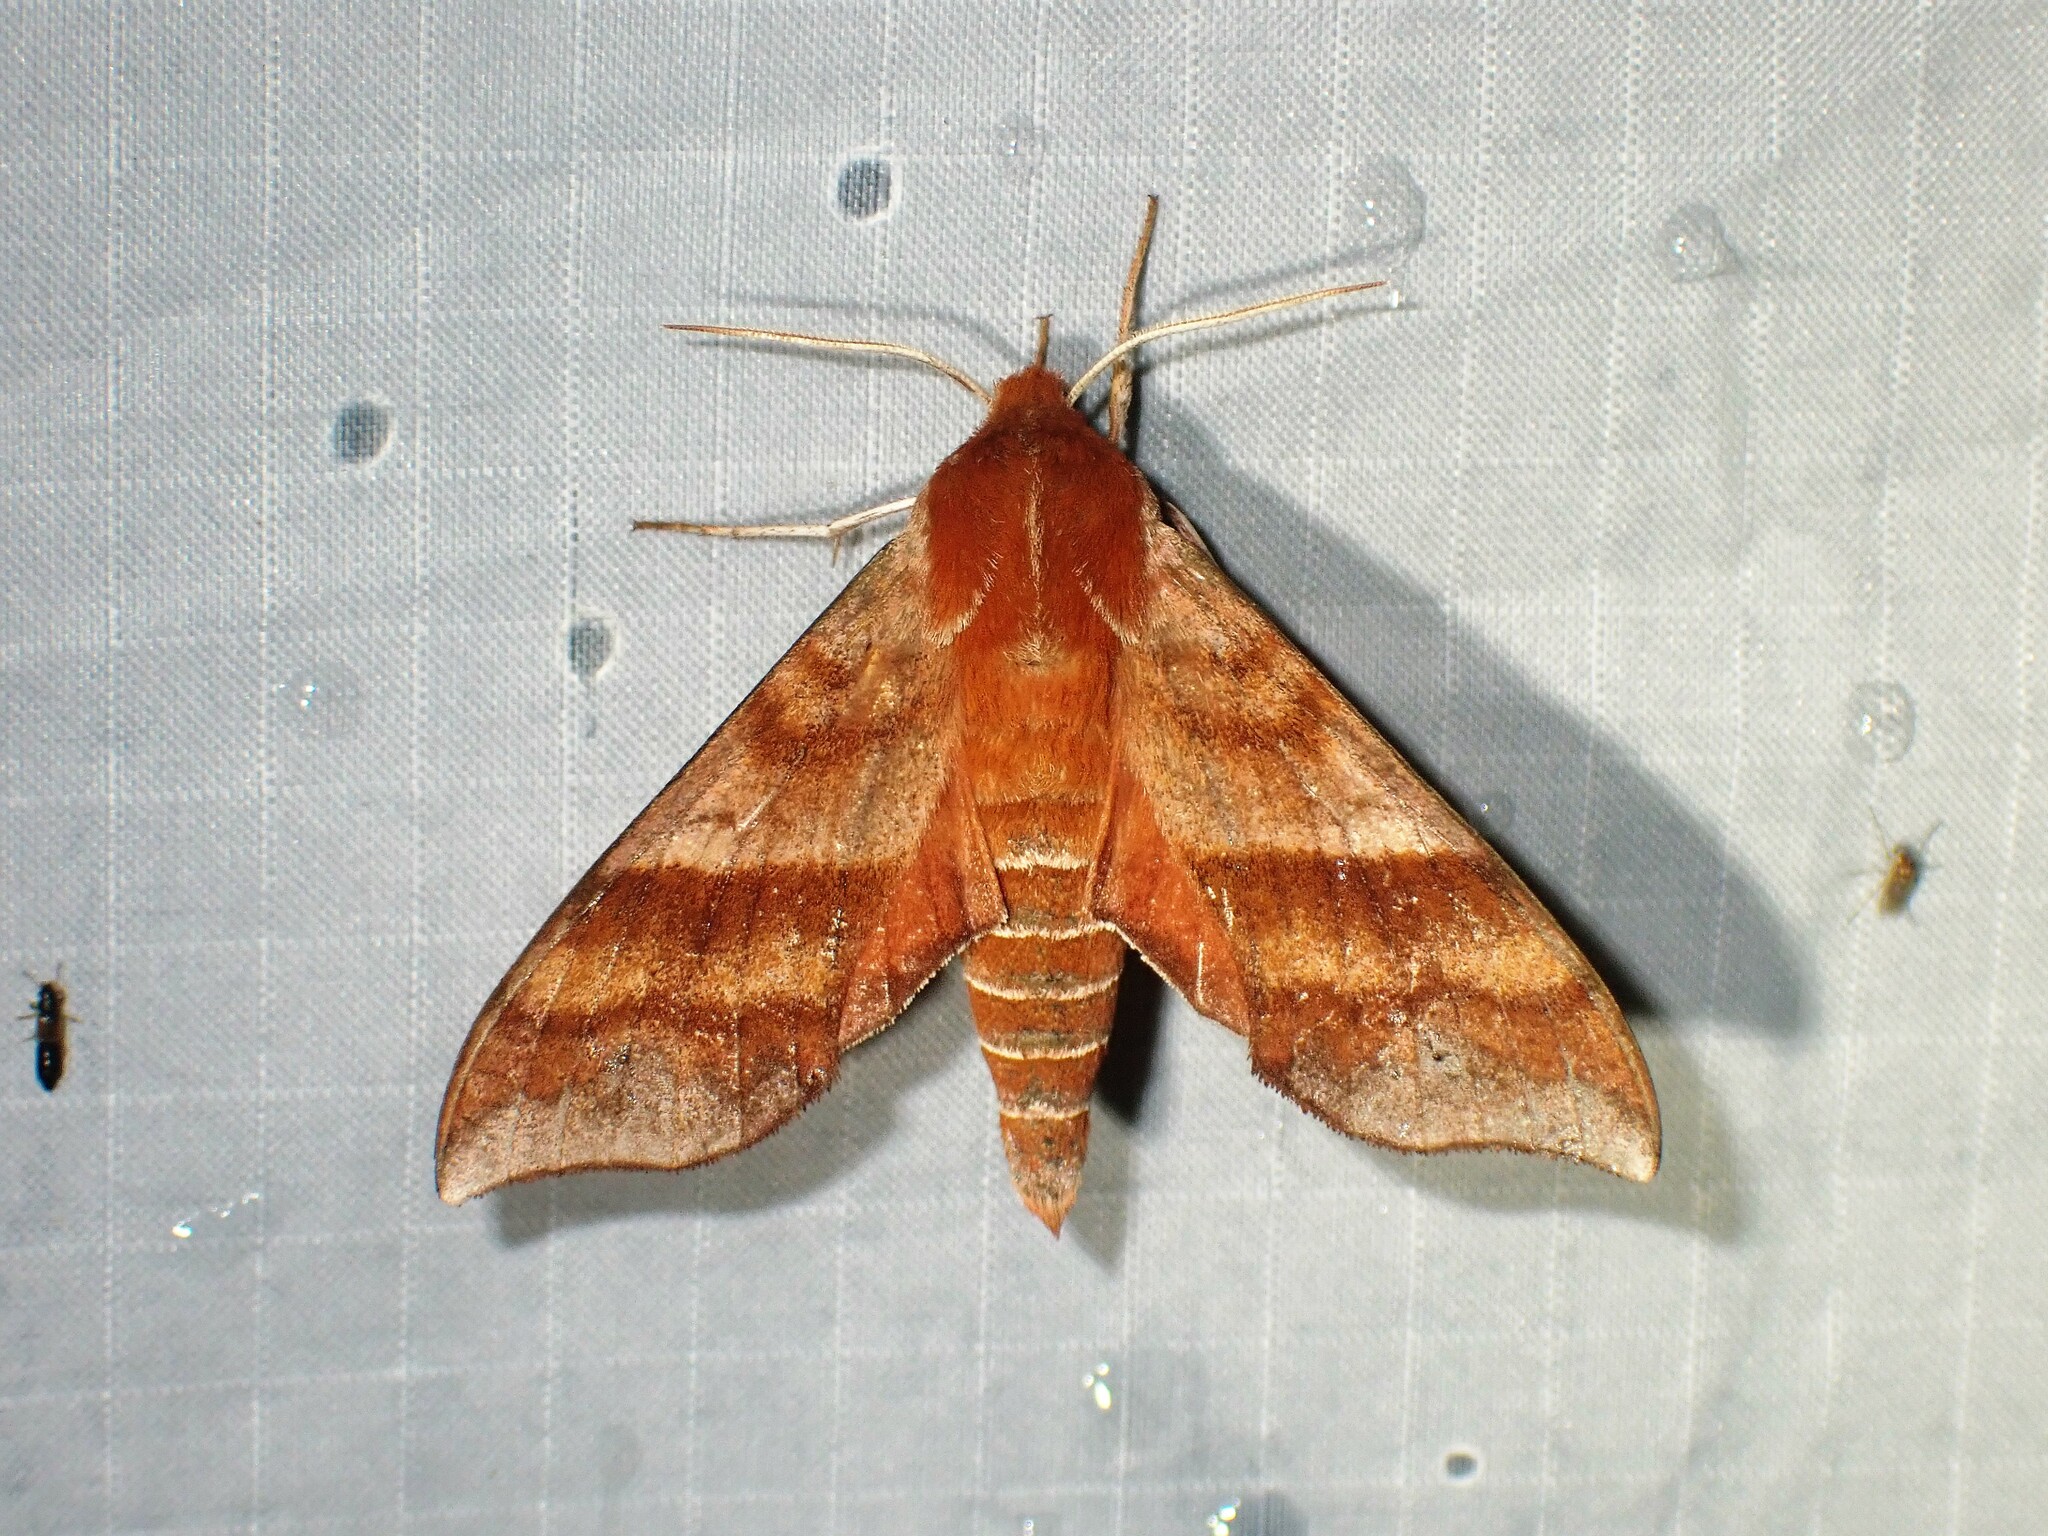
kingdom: Animalia
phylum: Arthropoda
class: Insecta
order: Lepidoptera
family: Sphingidae
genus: Darapsa
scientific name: Darapsa choerilus
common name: Azalea sphinx
